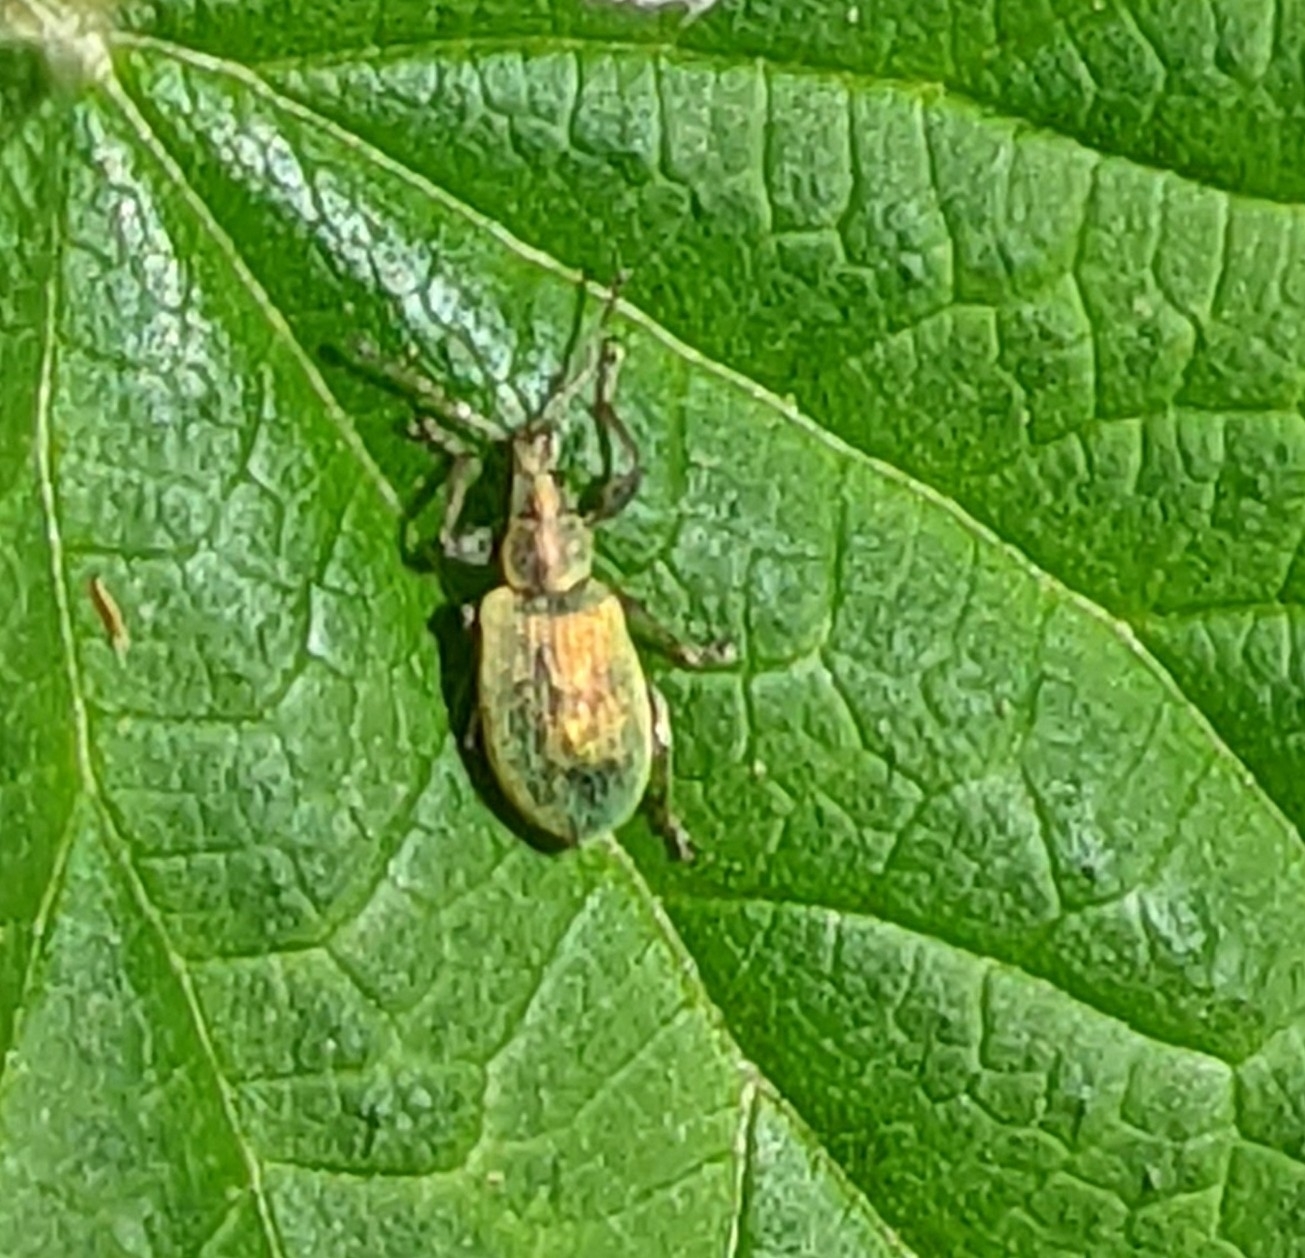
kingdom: Animalia
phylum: Arthropoda
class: Insecta
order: Coleoptera
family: Curculionidae
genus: Phyllobius
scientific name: Phyllobius pomaceus
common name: Green nettle weevil
